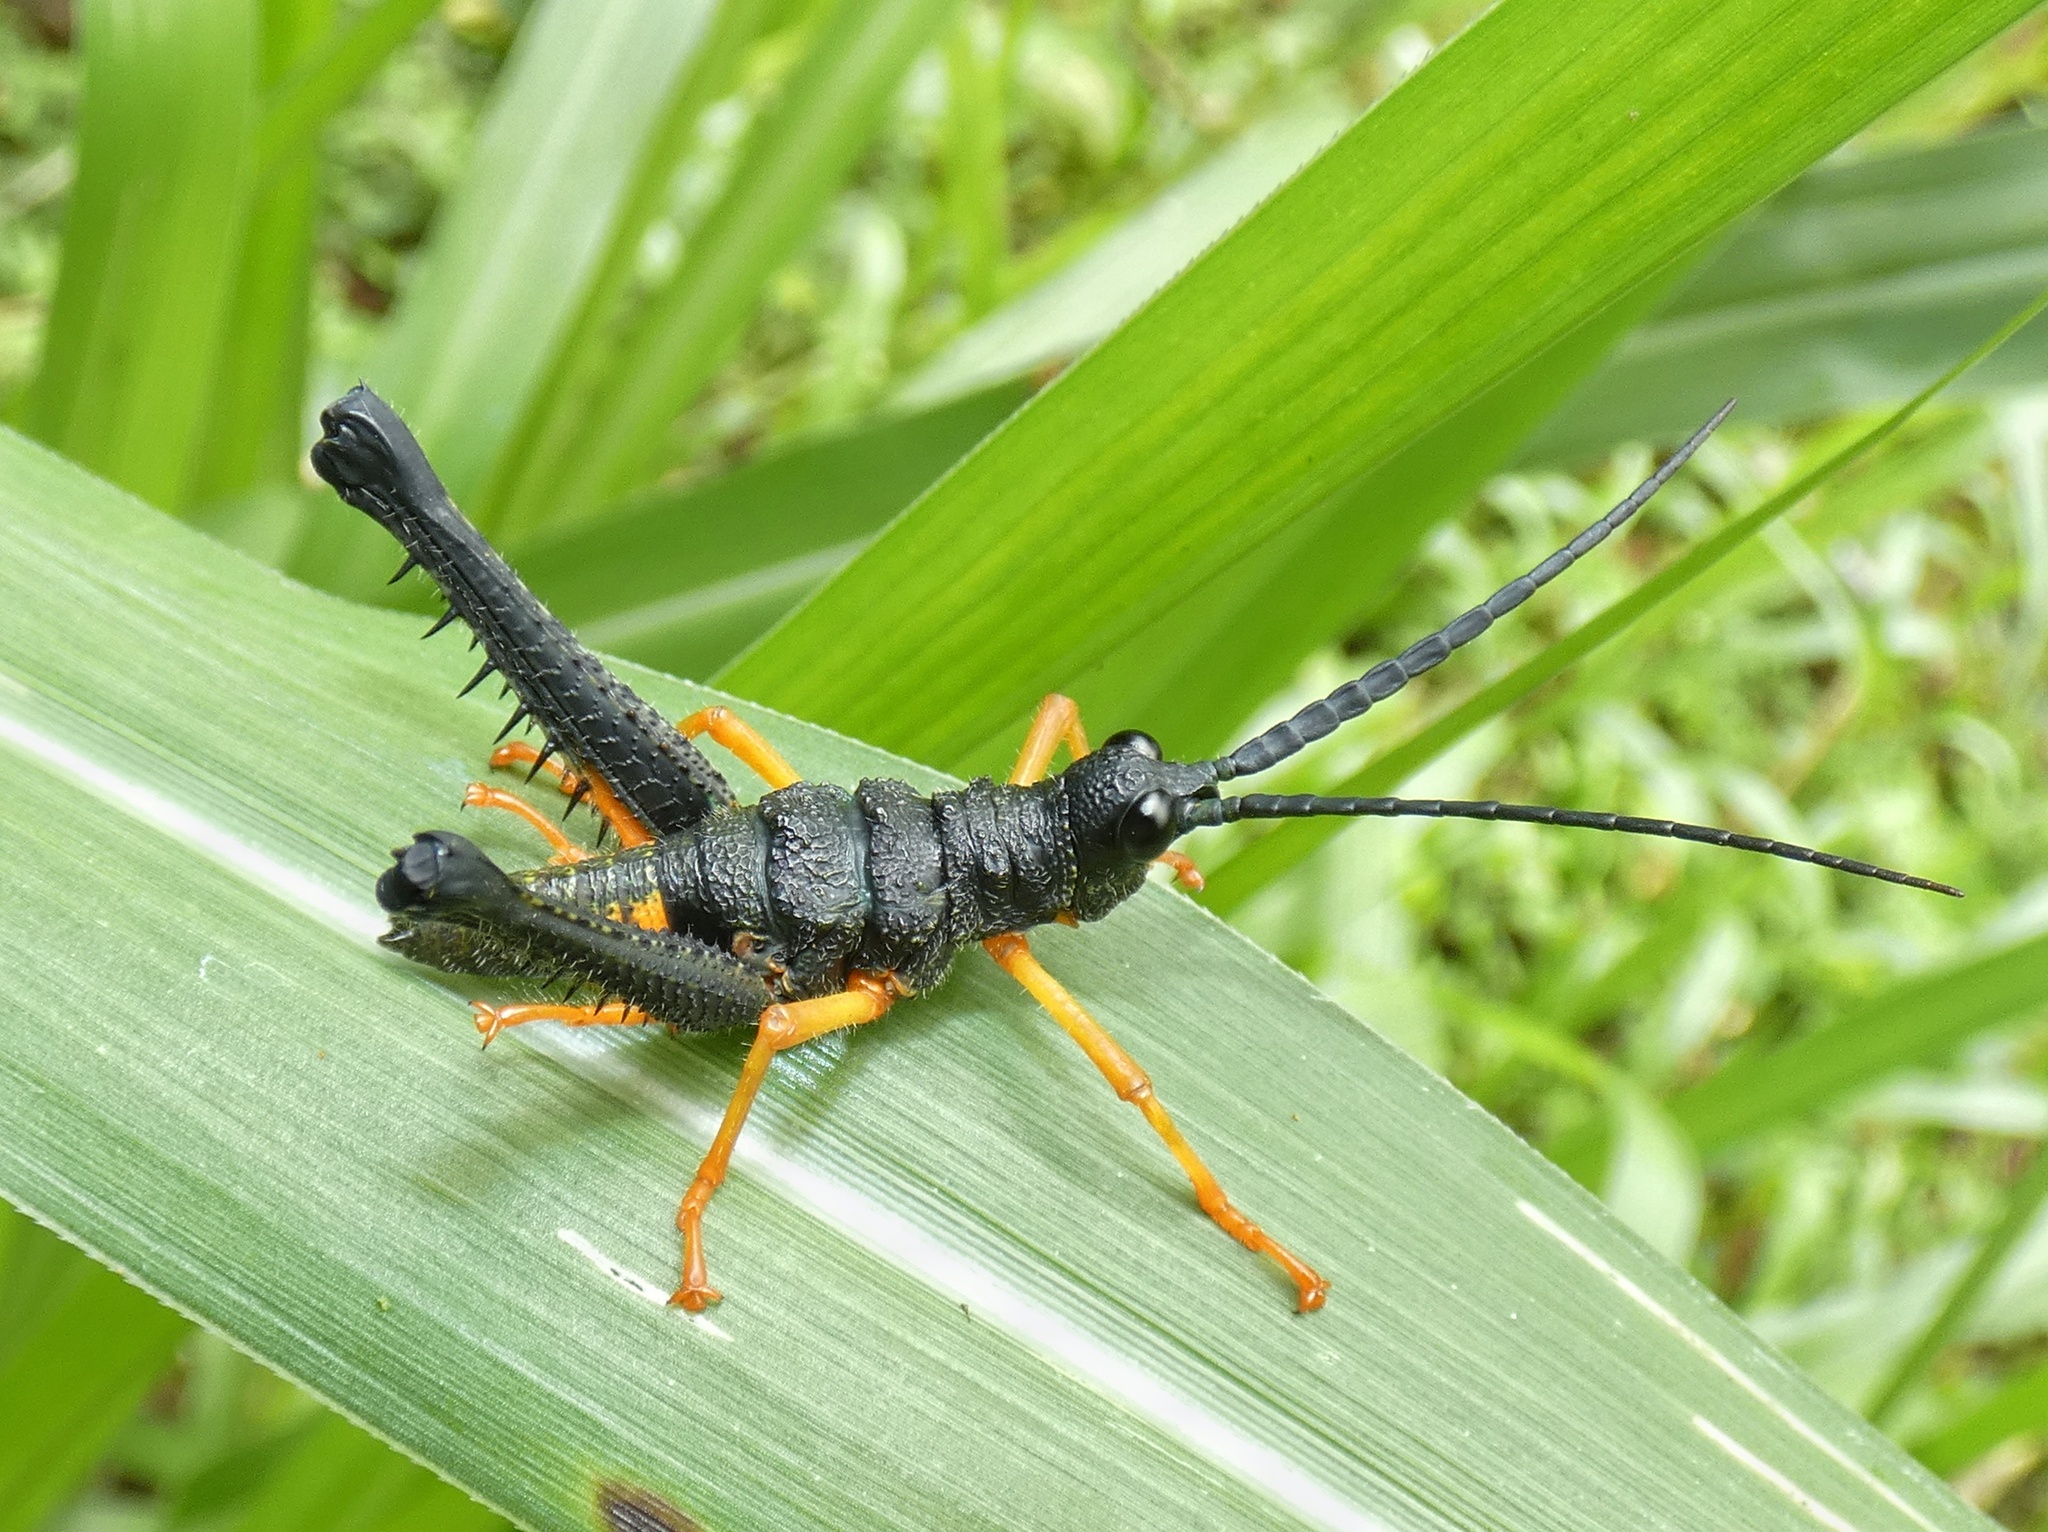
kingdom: Animalia
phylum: Arthropoda
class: Insecta
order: Orthoptera
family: Acrididae
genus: Piezops
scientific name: Piezops ensicornis
